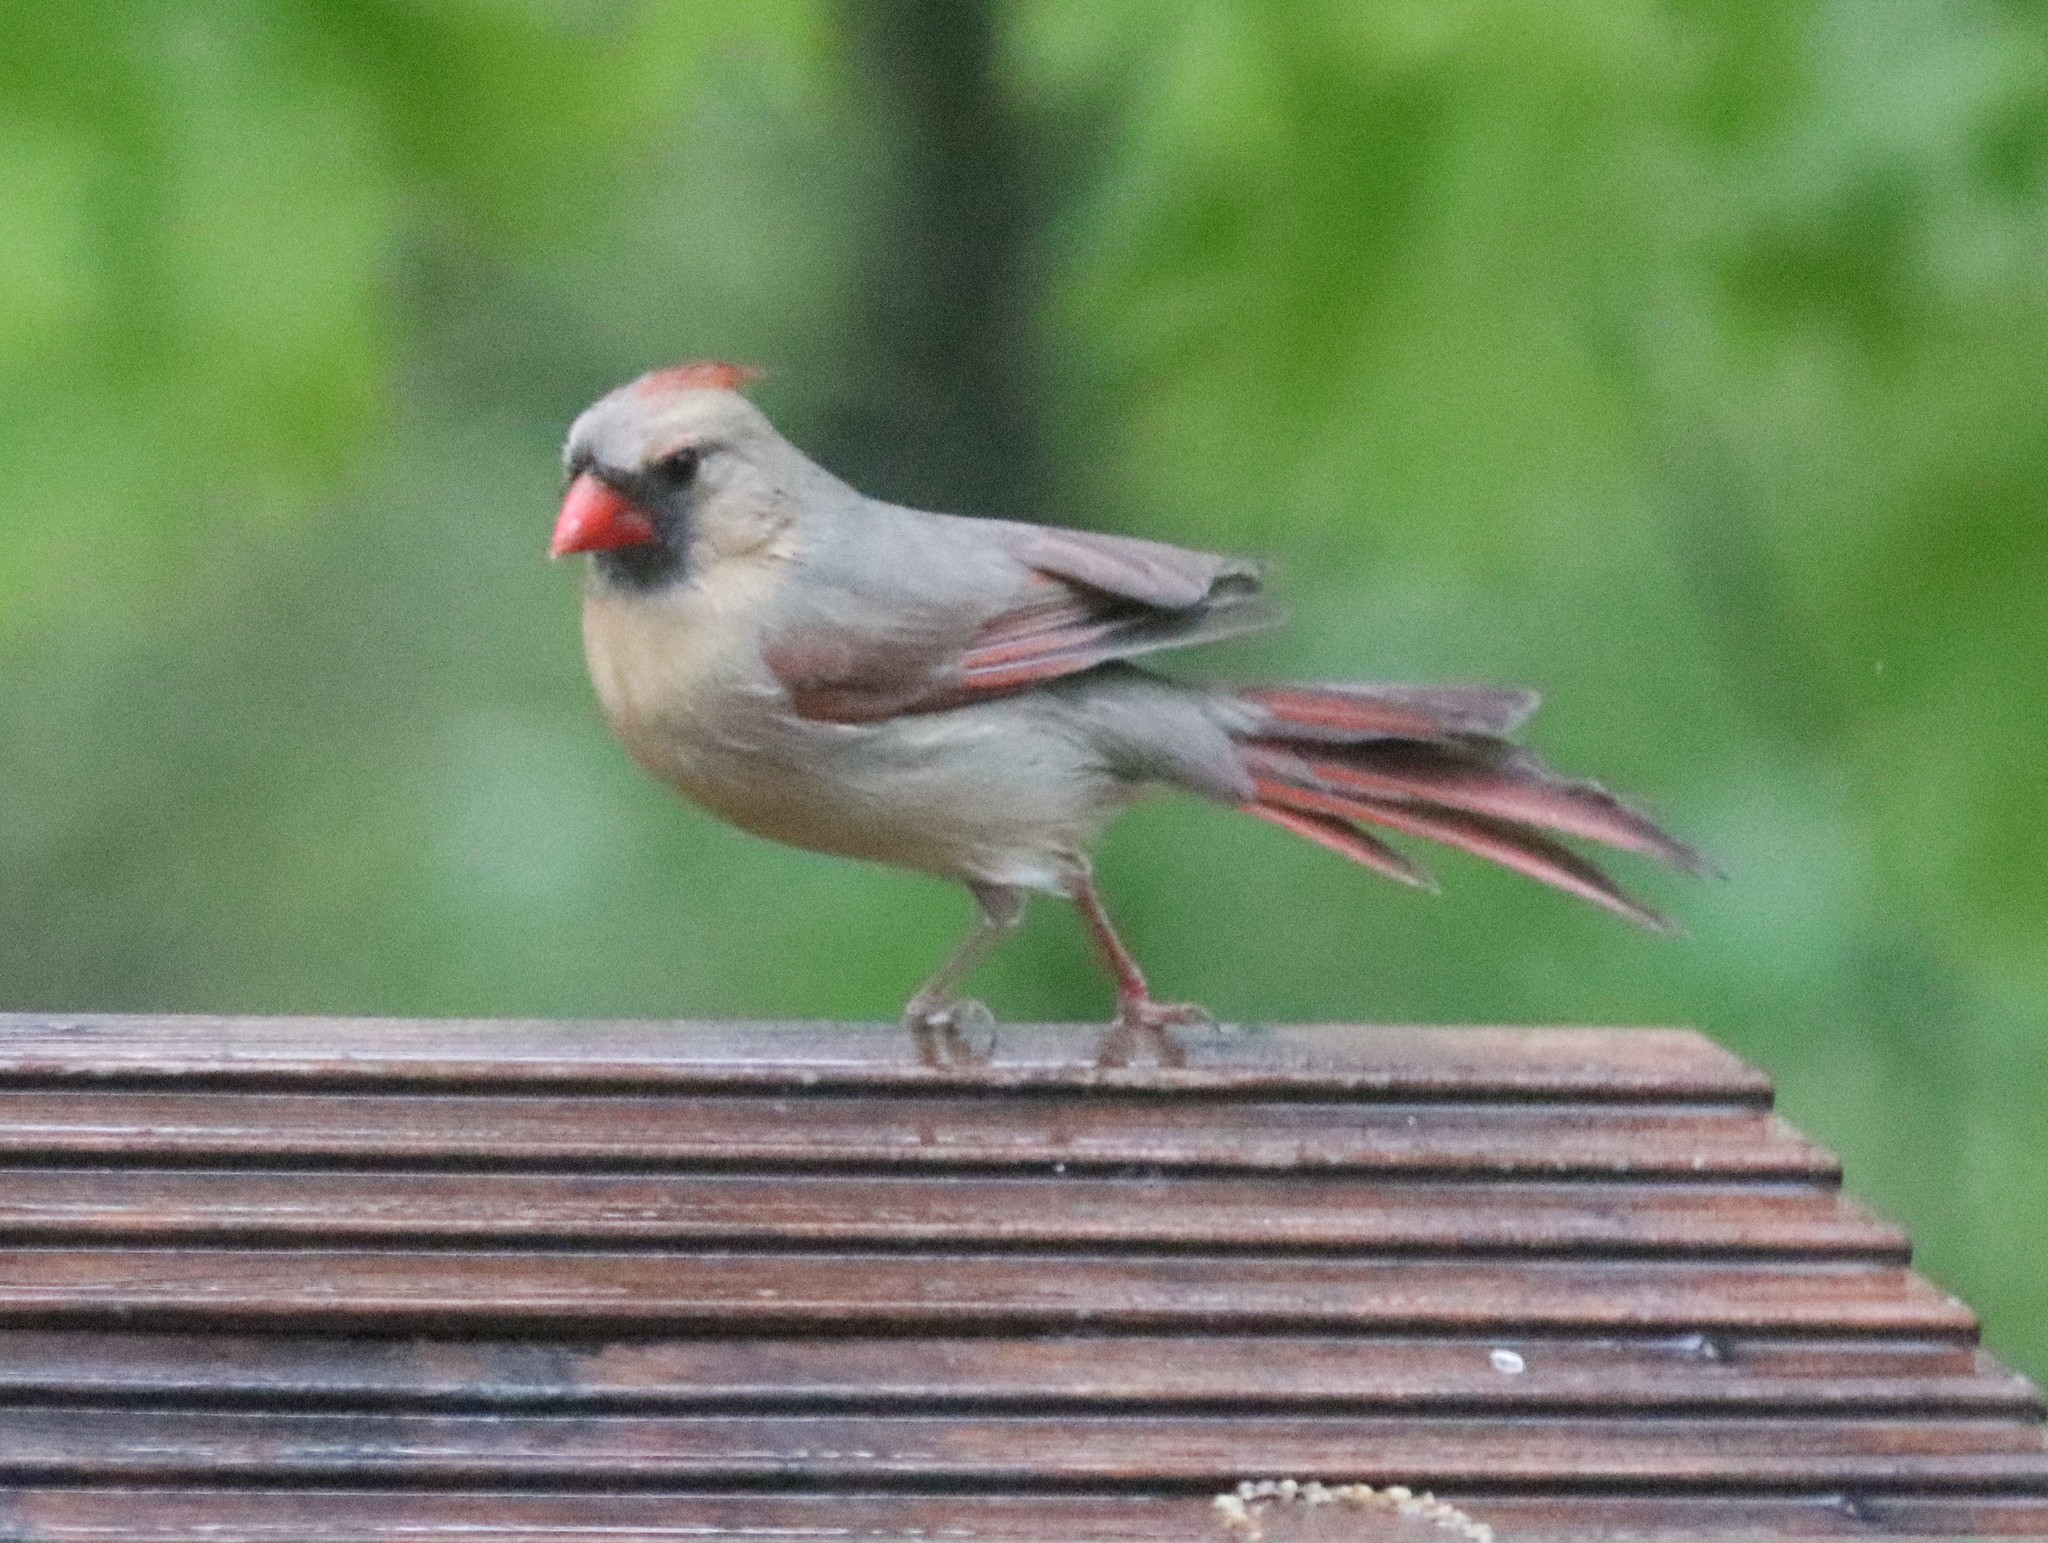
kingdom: Animalia
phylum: Chordata
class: Aves
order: Passeriformes
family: Cardinalidae
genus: Cardinalis
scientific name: Cardinalis cardinalis
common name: Northern cardinal
